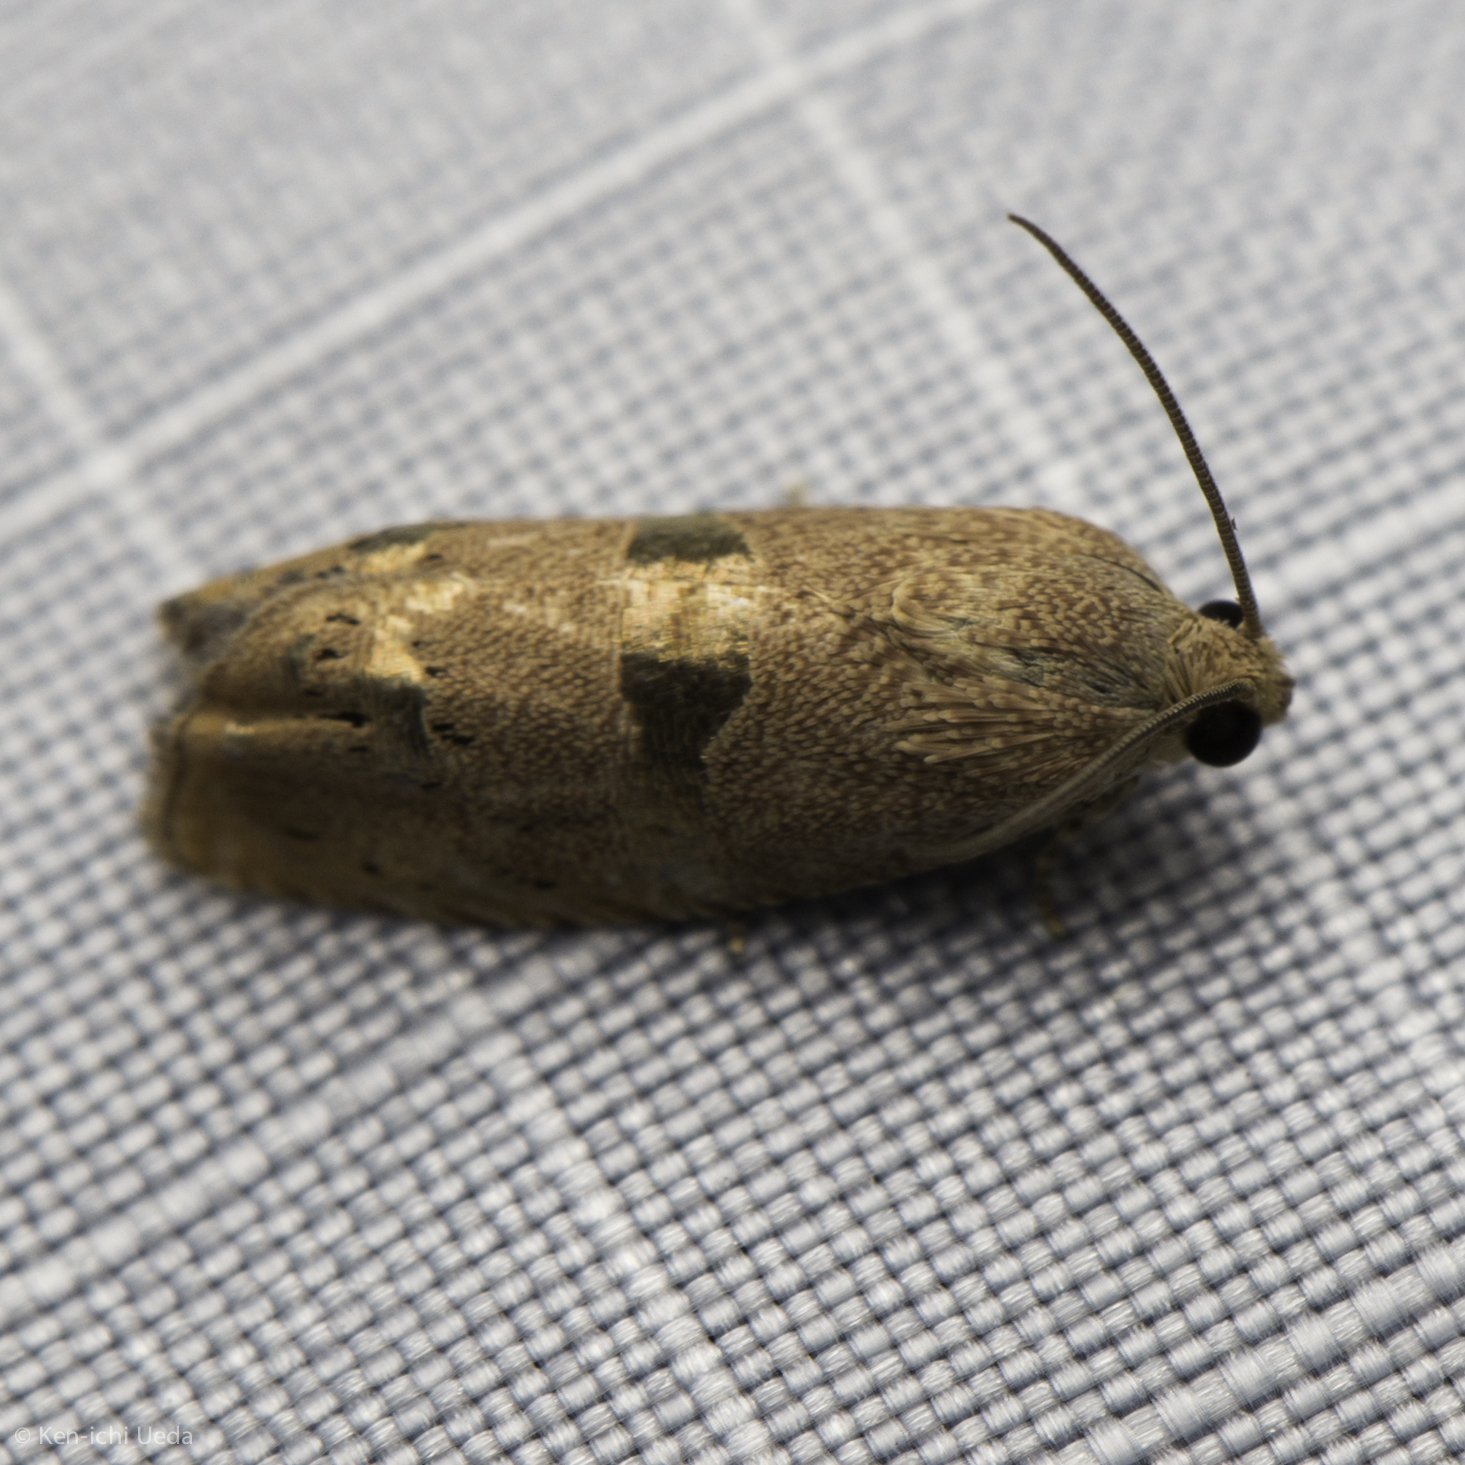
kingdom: Animalia
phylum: Arthropoda
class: Insecta
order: Lepidoptera
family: Tortricidae
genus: Cydia
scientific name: Cydia latiferreana
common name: Filbertworm moth
